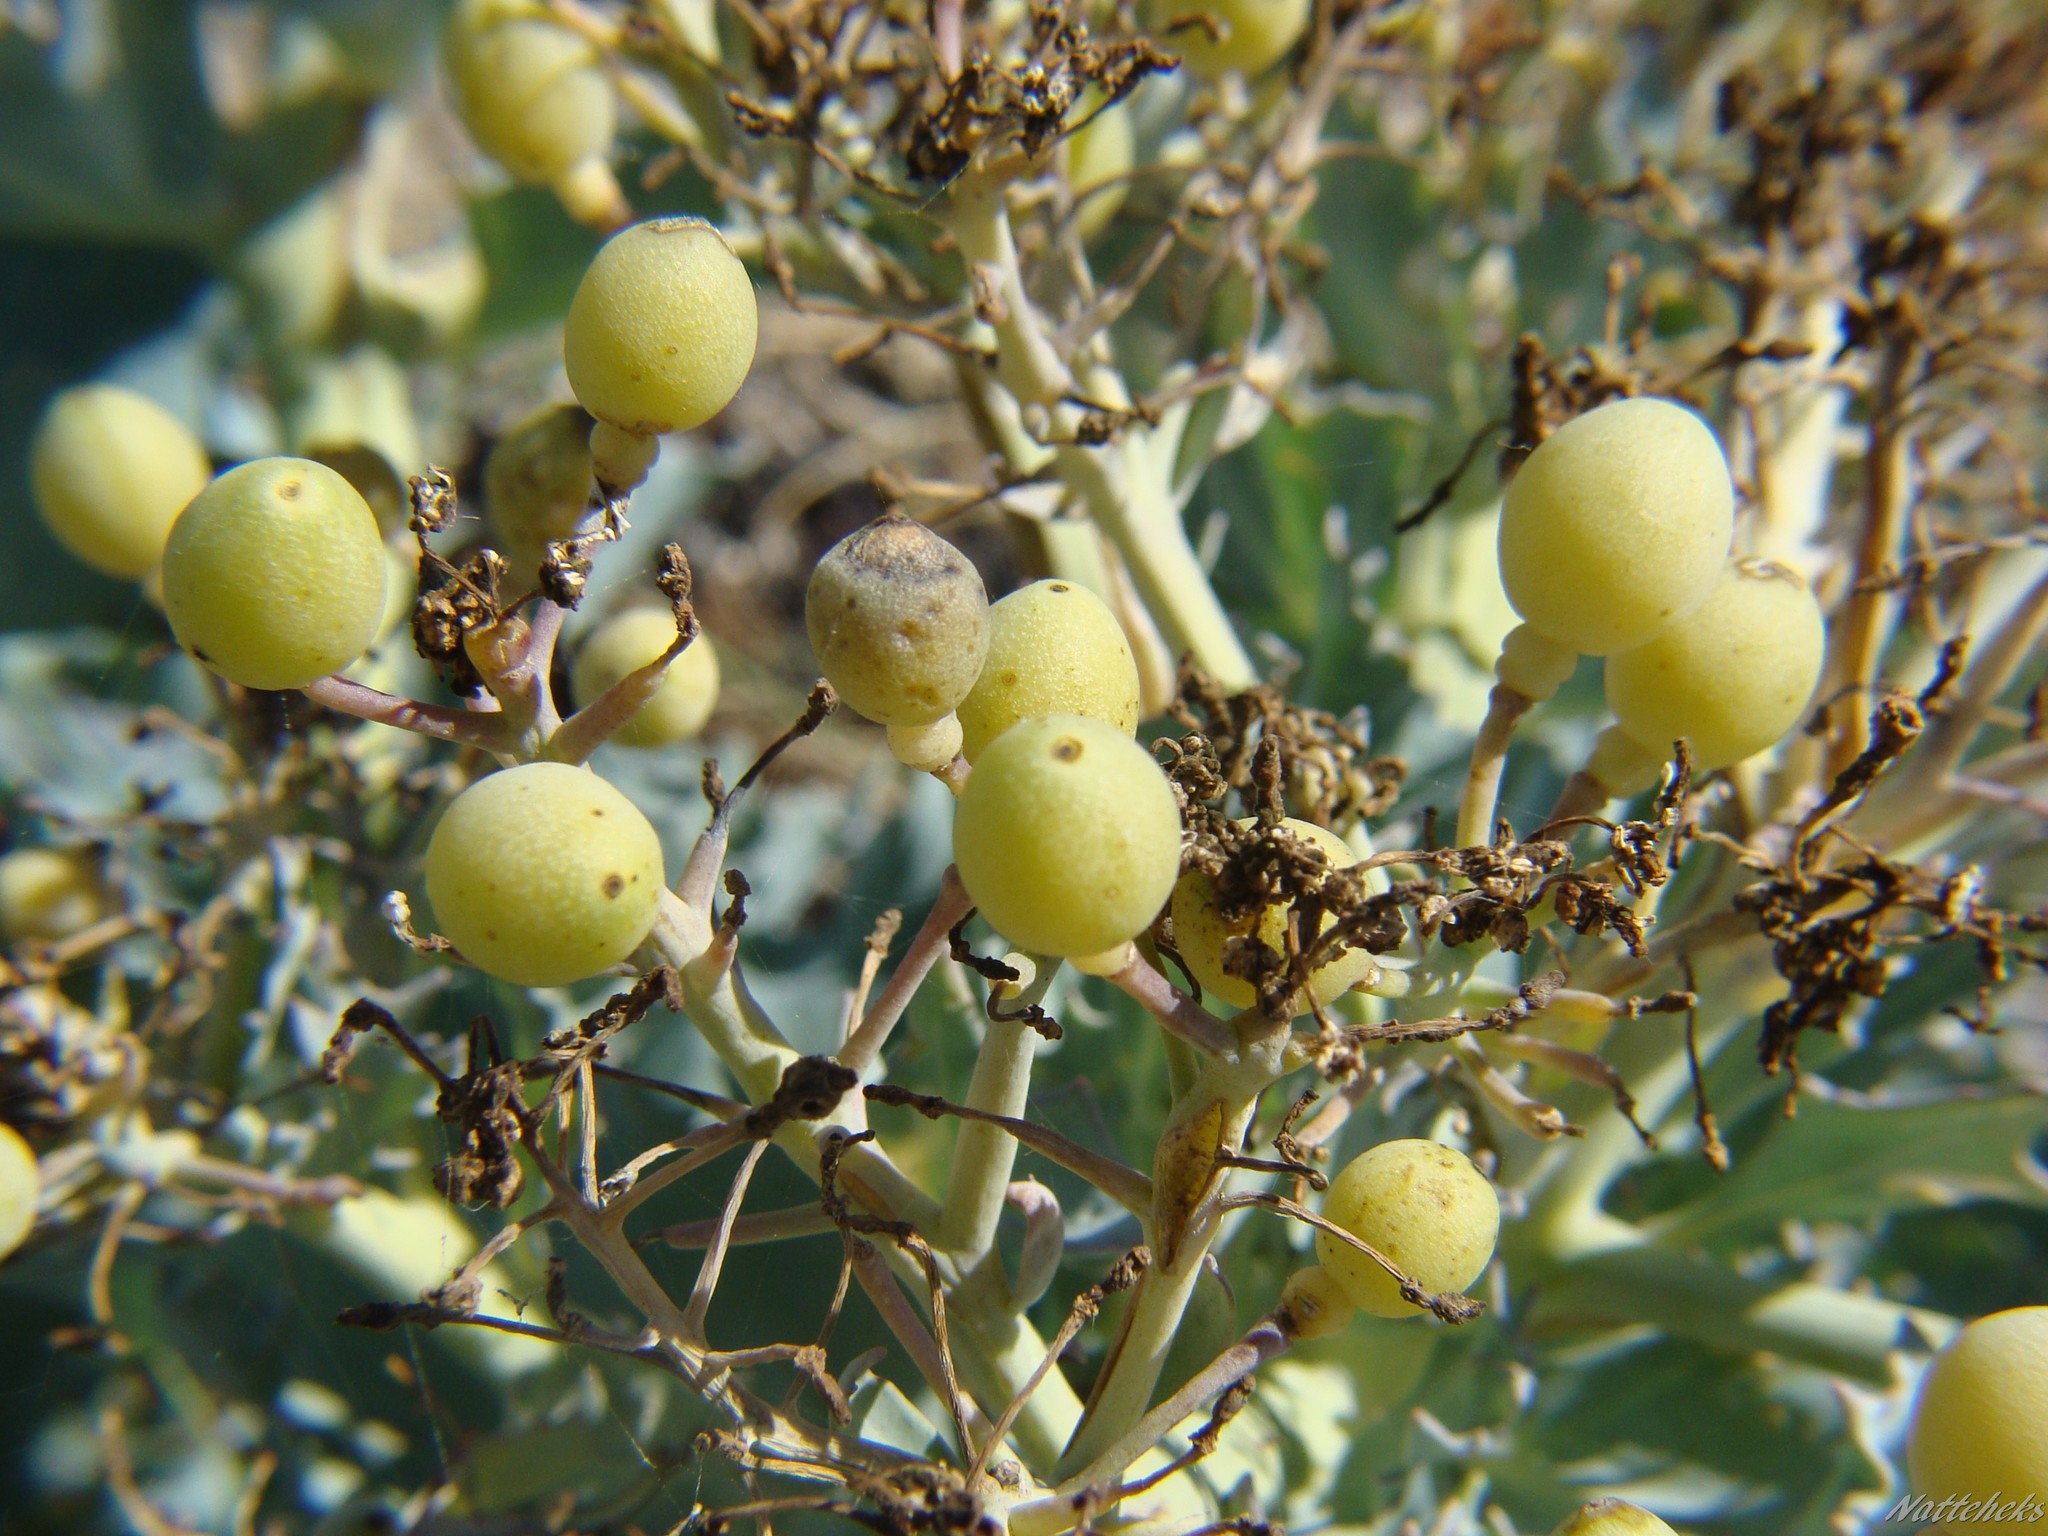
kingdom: Plantae
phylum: Tracheophyta
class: Magnoliopsida
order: Brassicales
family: Brassicaceae
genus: Crambe
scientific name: Crambe maritima
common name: Sea-kale
